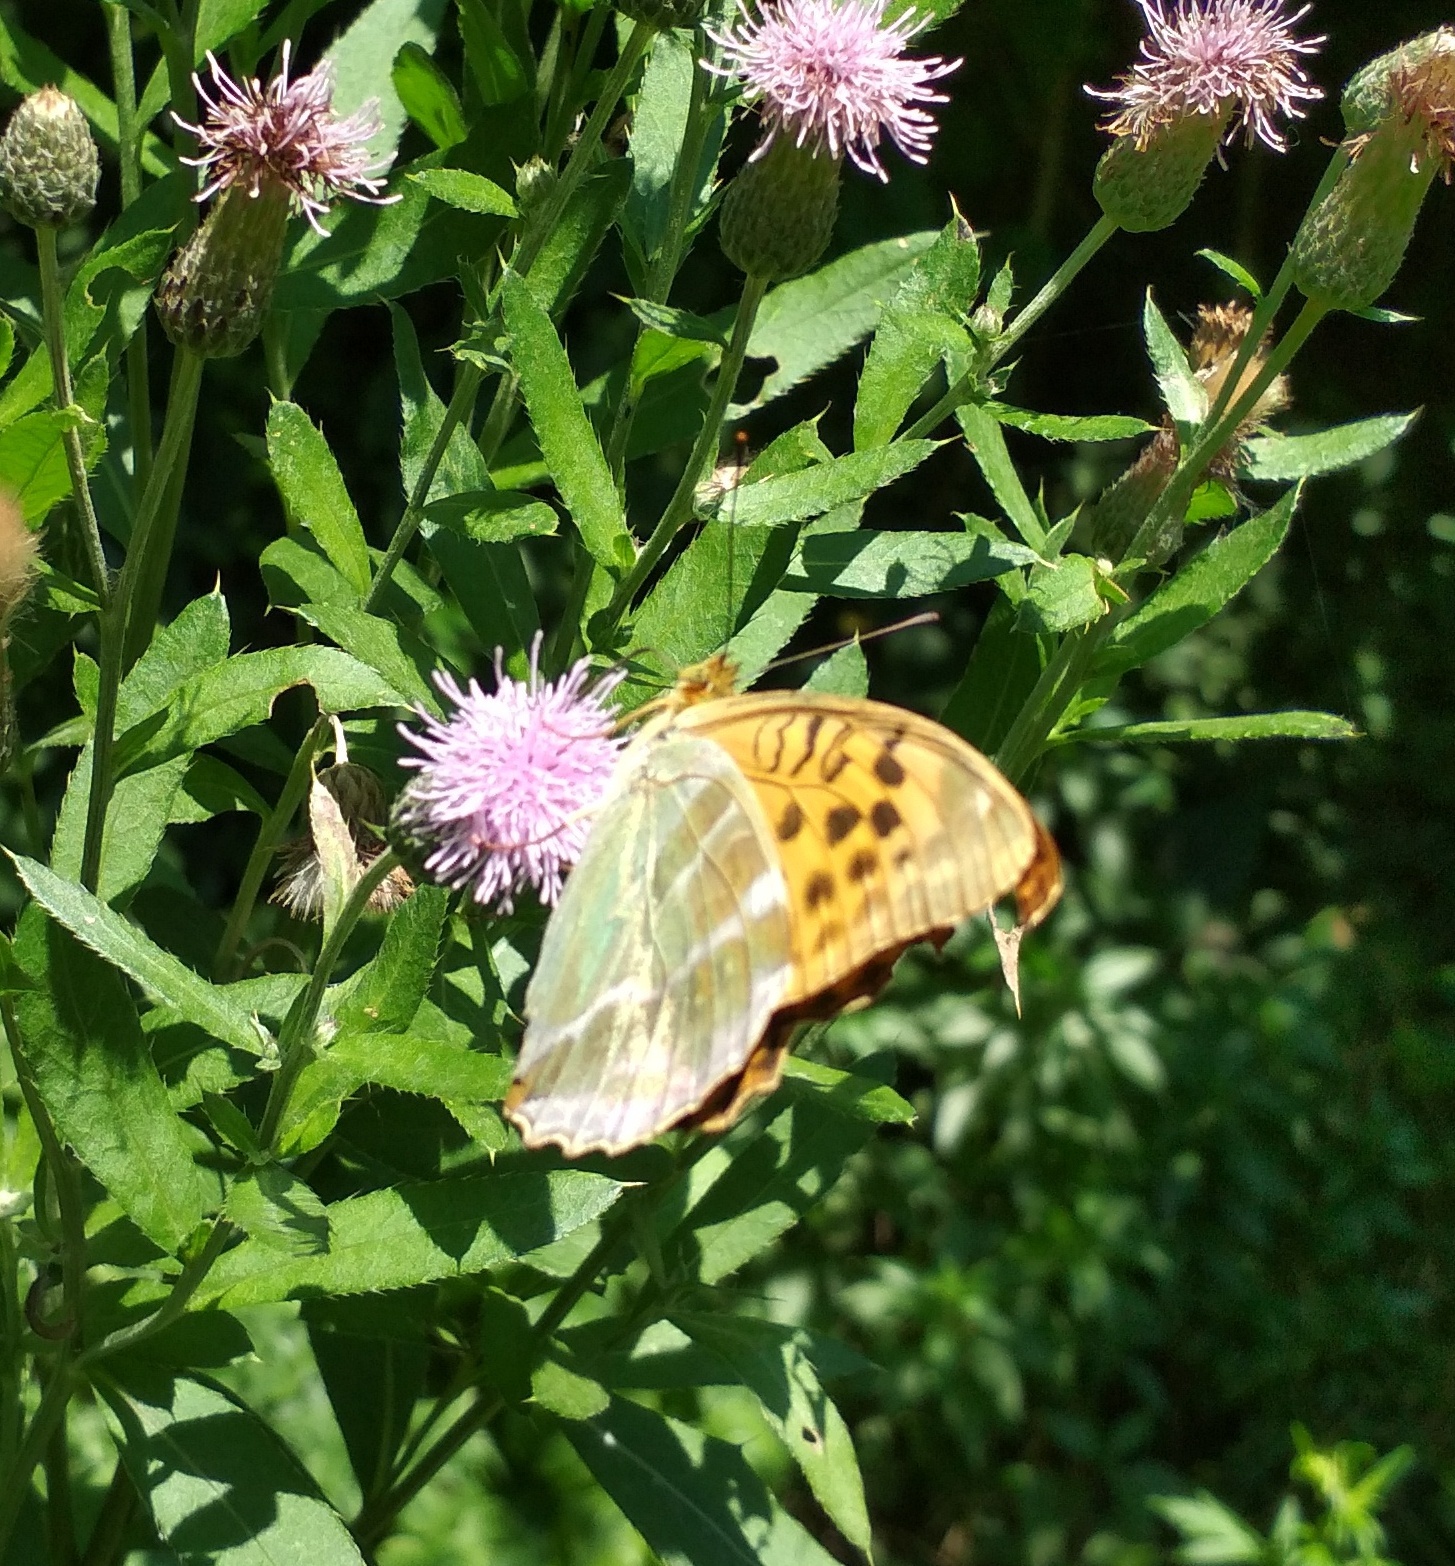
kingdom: Animalia
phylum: Arthropoda
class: Insecta
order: Lepidoptera
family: Nymphalidae
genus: Argynnis
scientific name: Argynnis paphia
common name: Silver-washed fritillary
